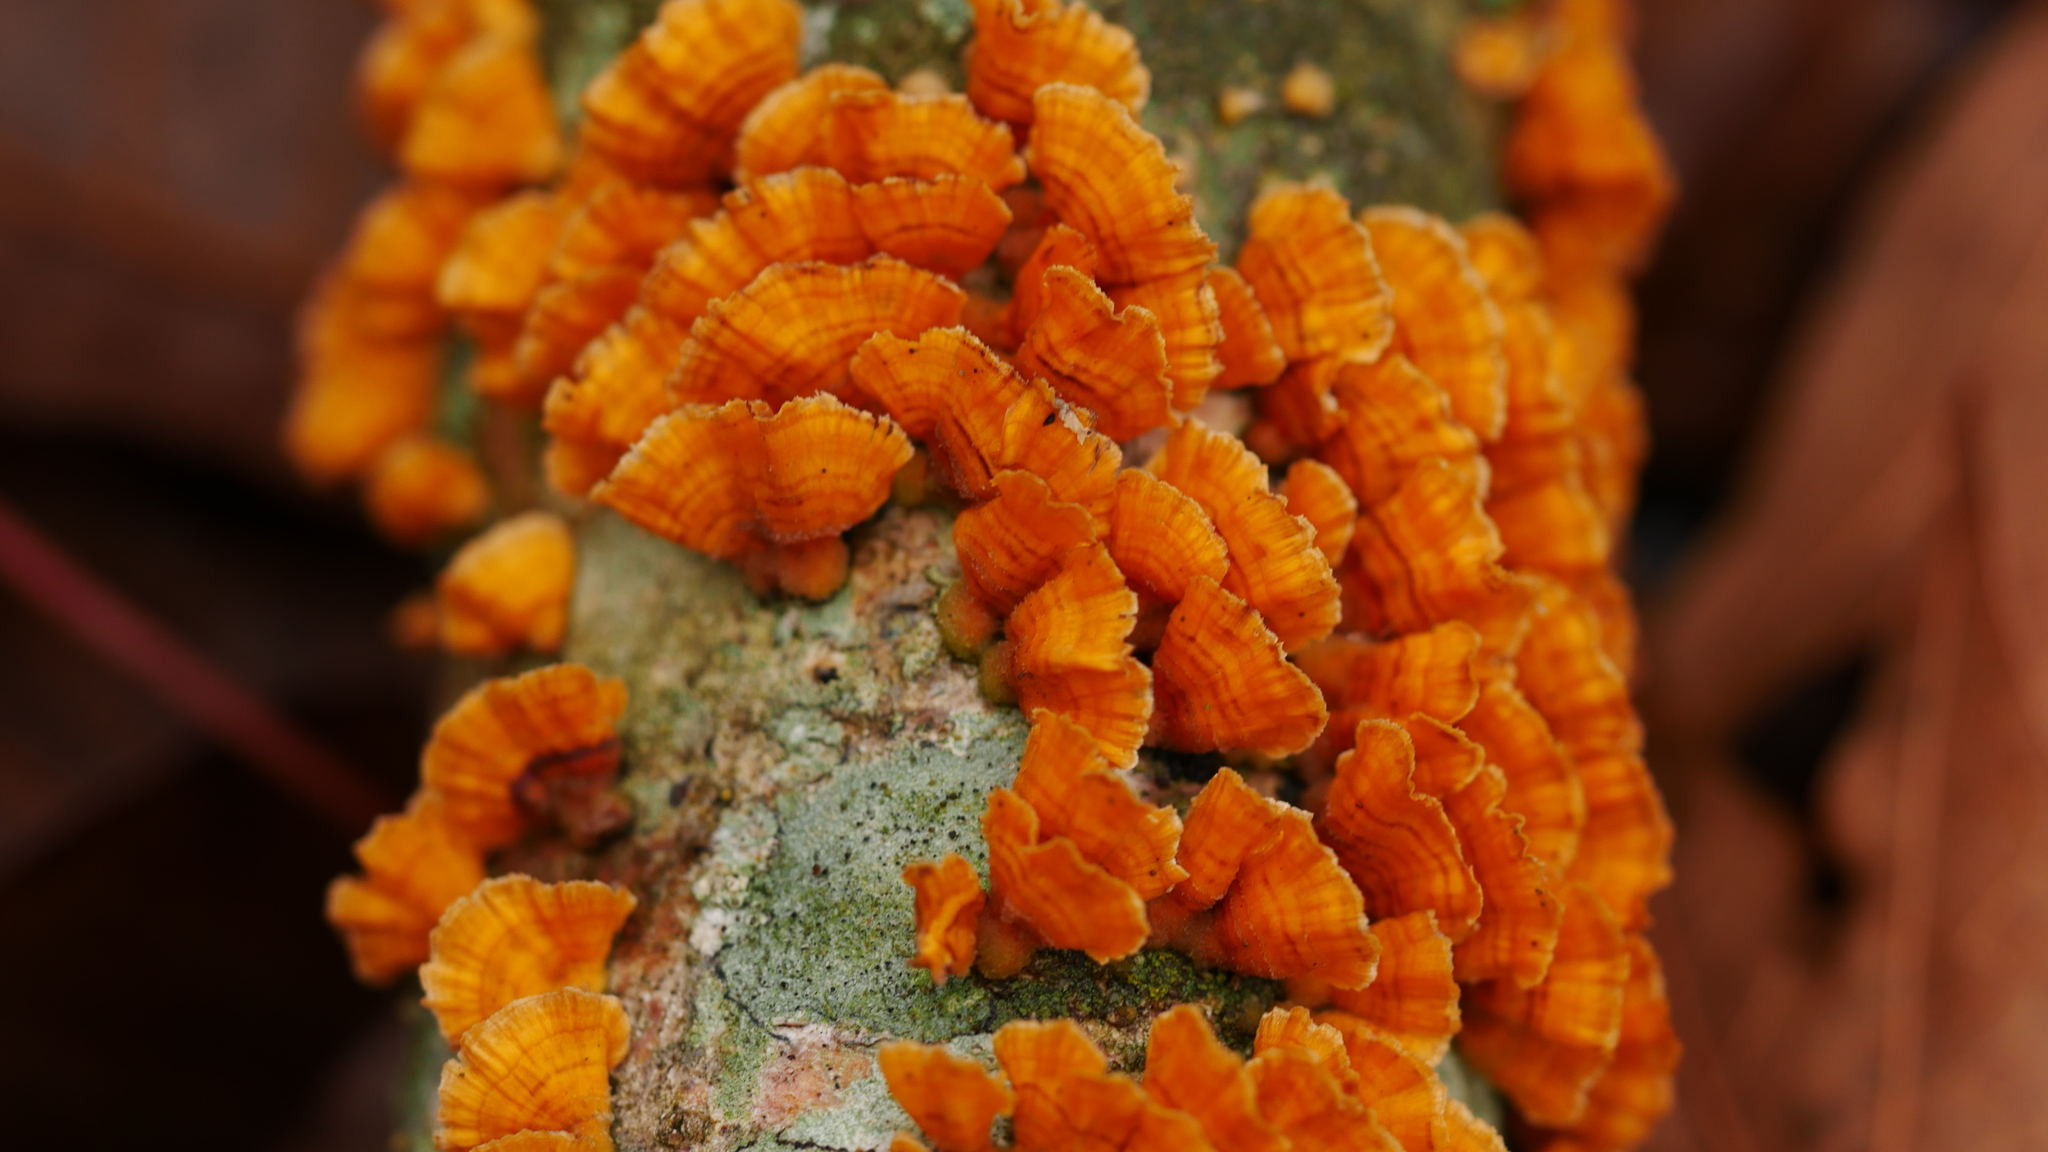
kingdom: Fungi
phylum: Basidiomycota
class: Agaricomycetes
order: Russulales
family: Stereaceae
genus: Stereum
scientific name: Stereum complicatum
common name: Crowded parchment
